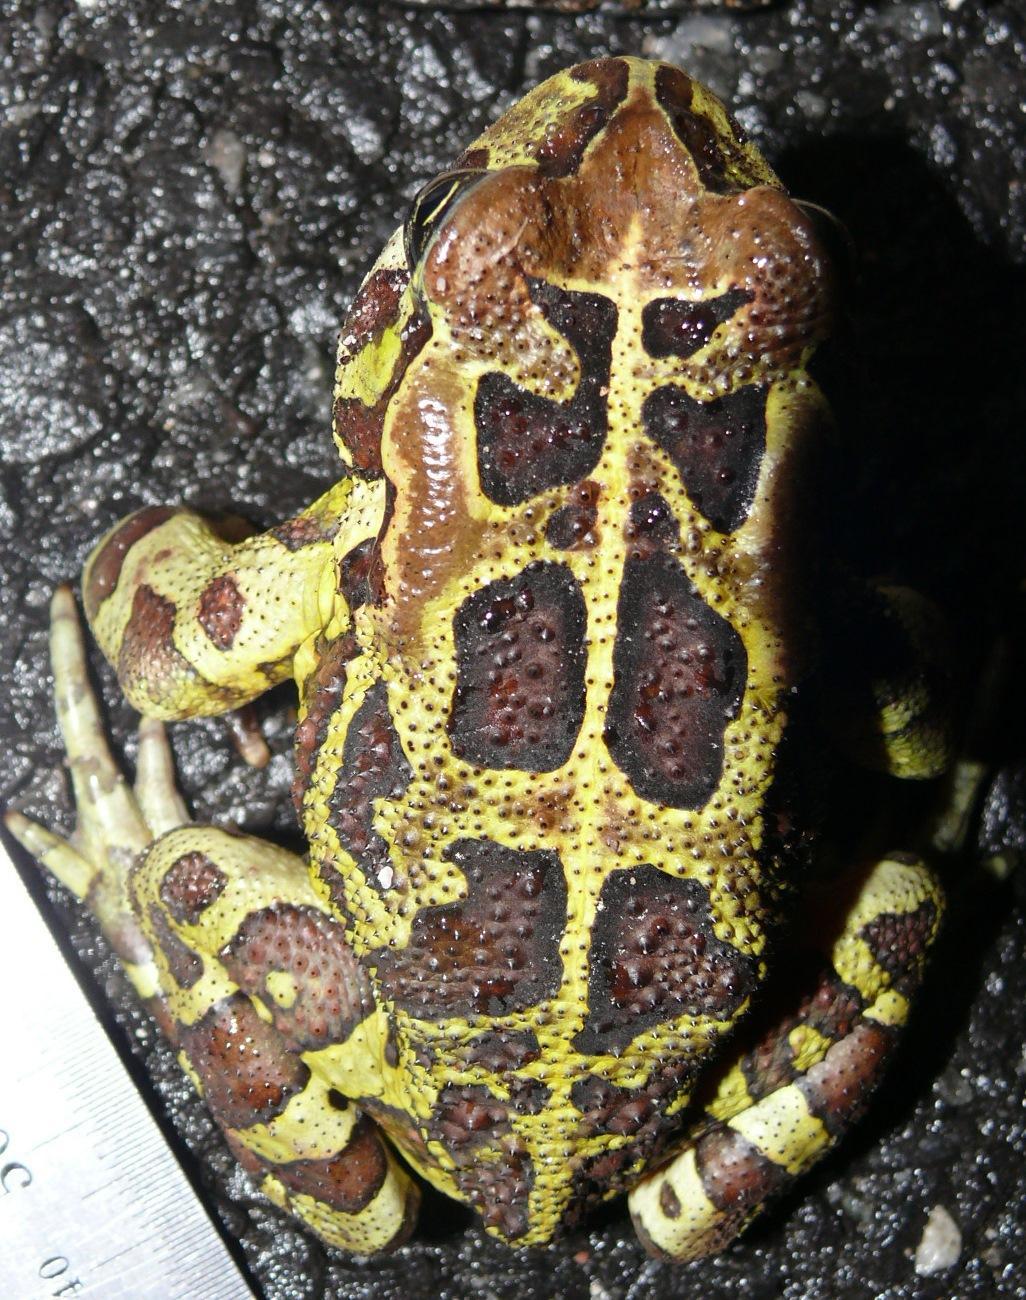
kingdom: Animalia
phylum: Chordata
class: Amphibia
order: Anura
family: Bufonidae
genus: Sclerophrys
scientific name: Sclerophrys pantherina
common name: Panther toad
